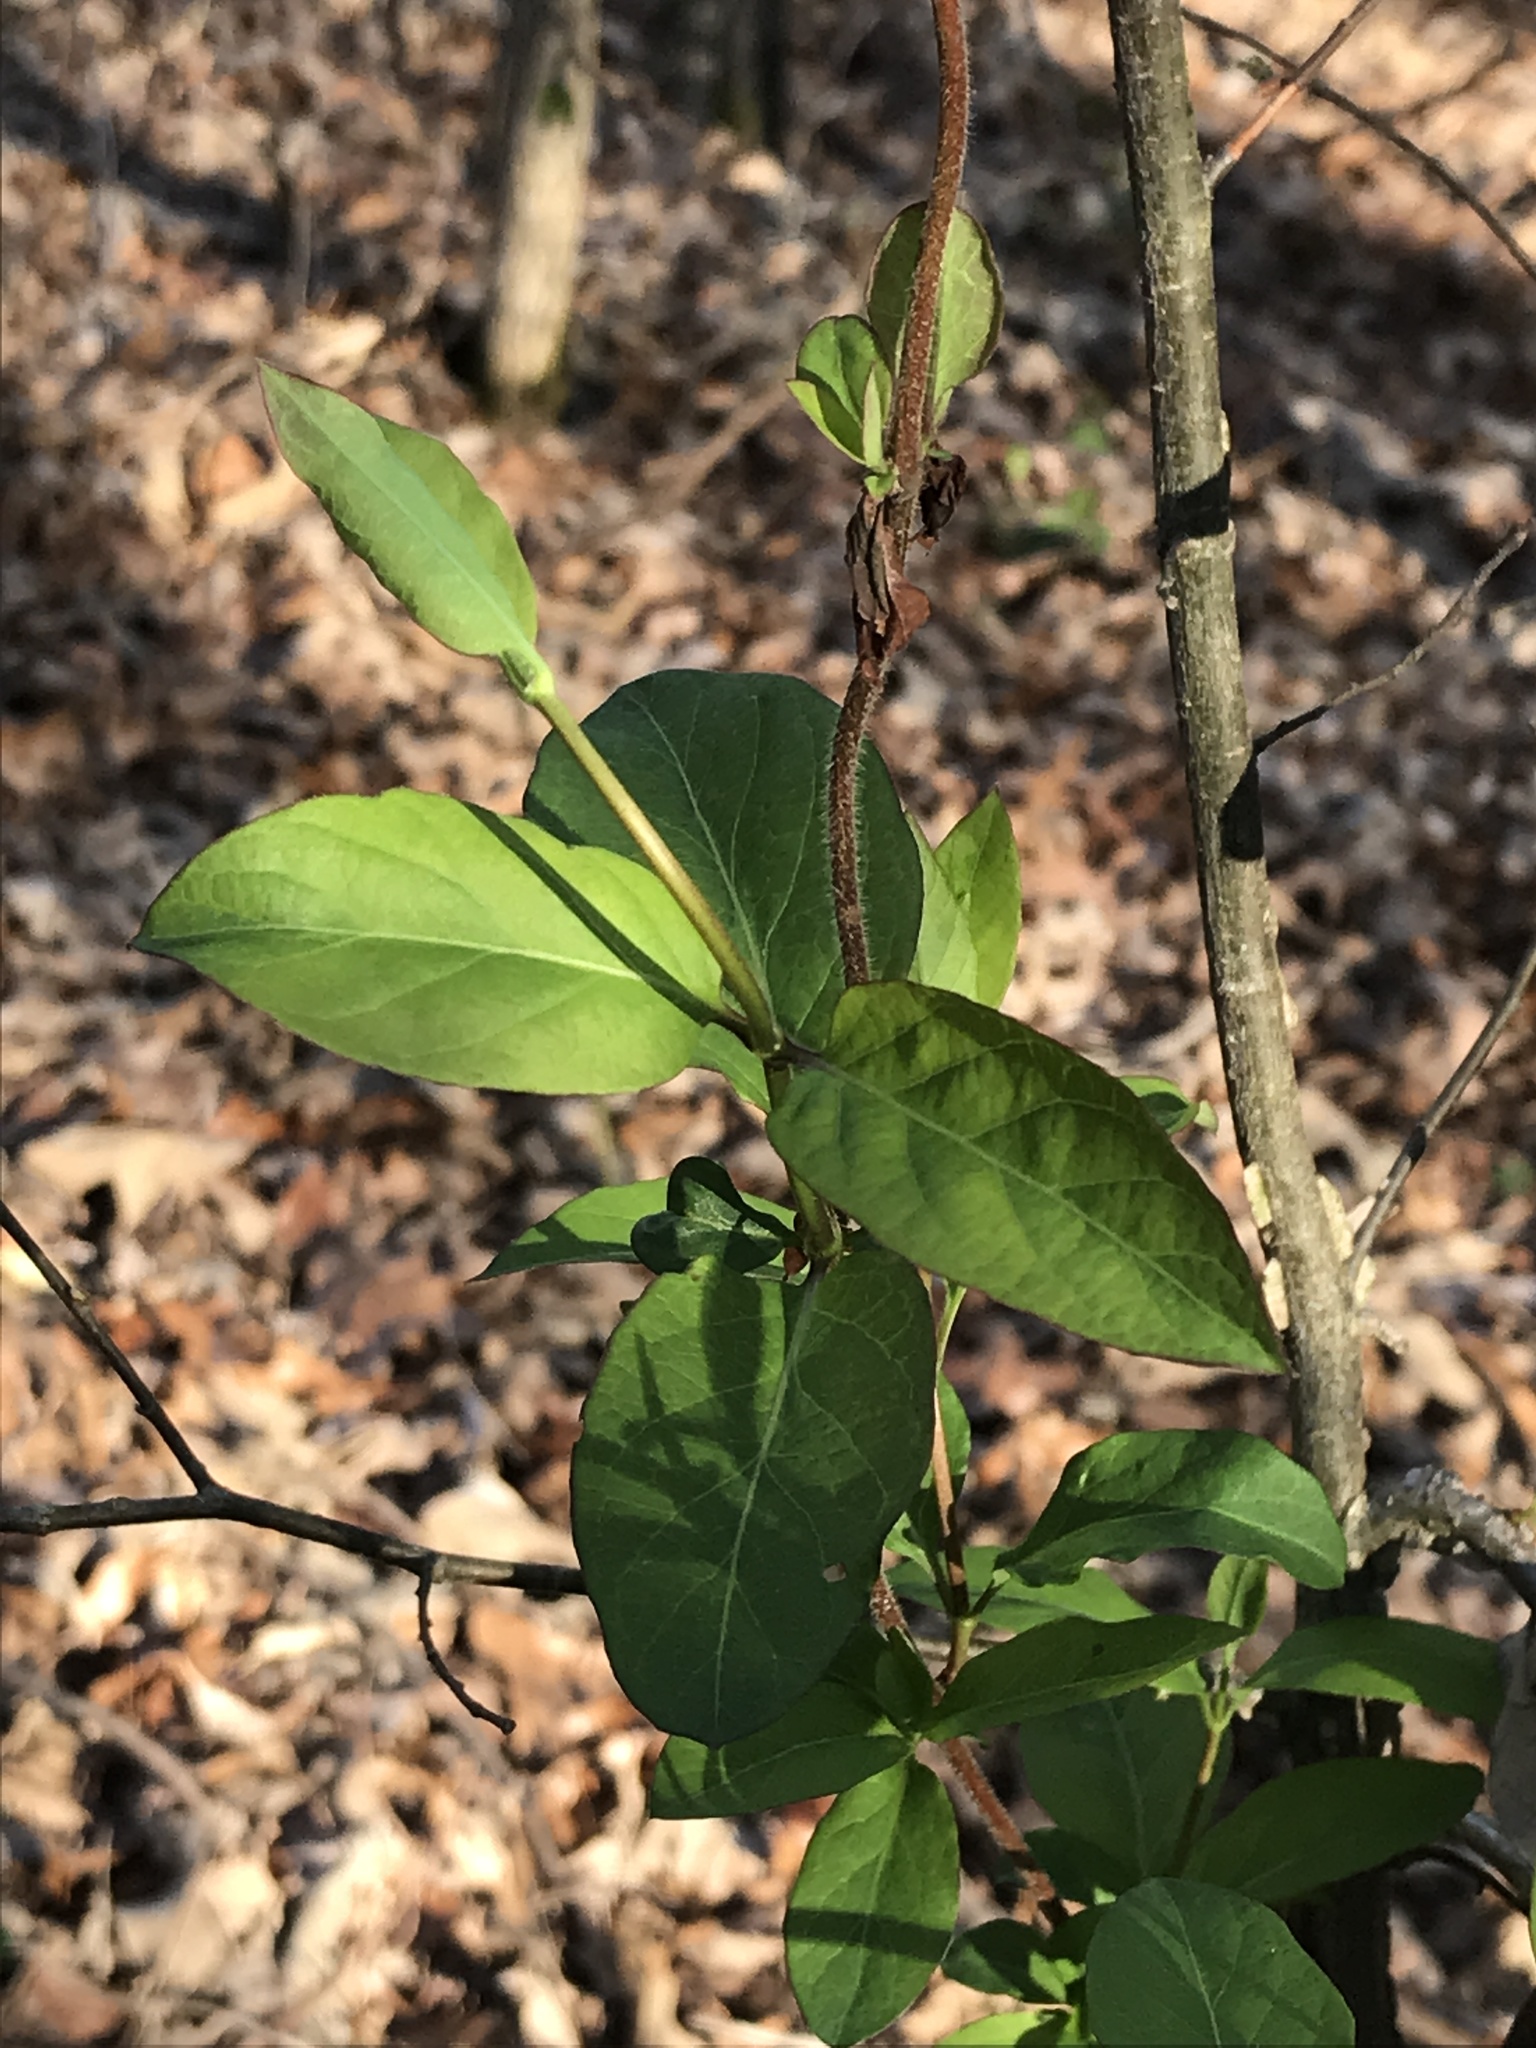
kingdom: Plantae
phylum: Tracheophyta
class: Magnoliopsida
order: Dipsacales
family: Caprifoliaceae
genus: Lonicera
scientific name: Lonicera japonica
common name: Japanese honeysuckle
